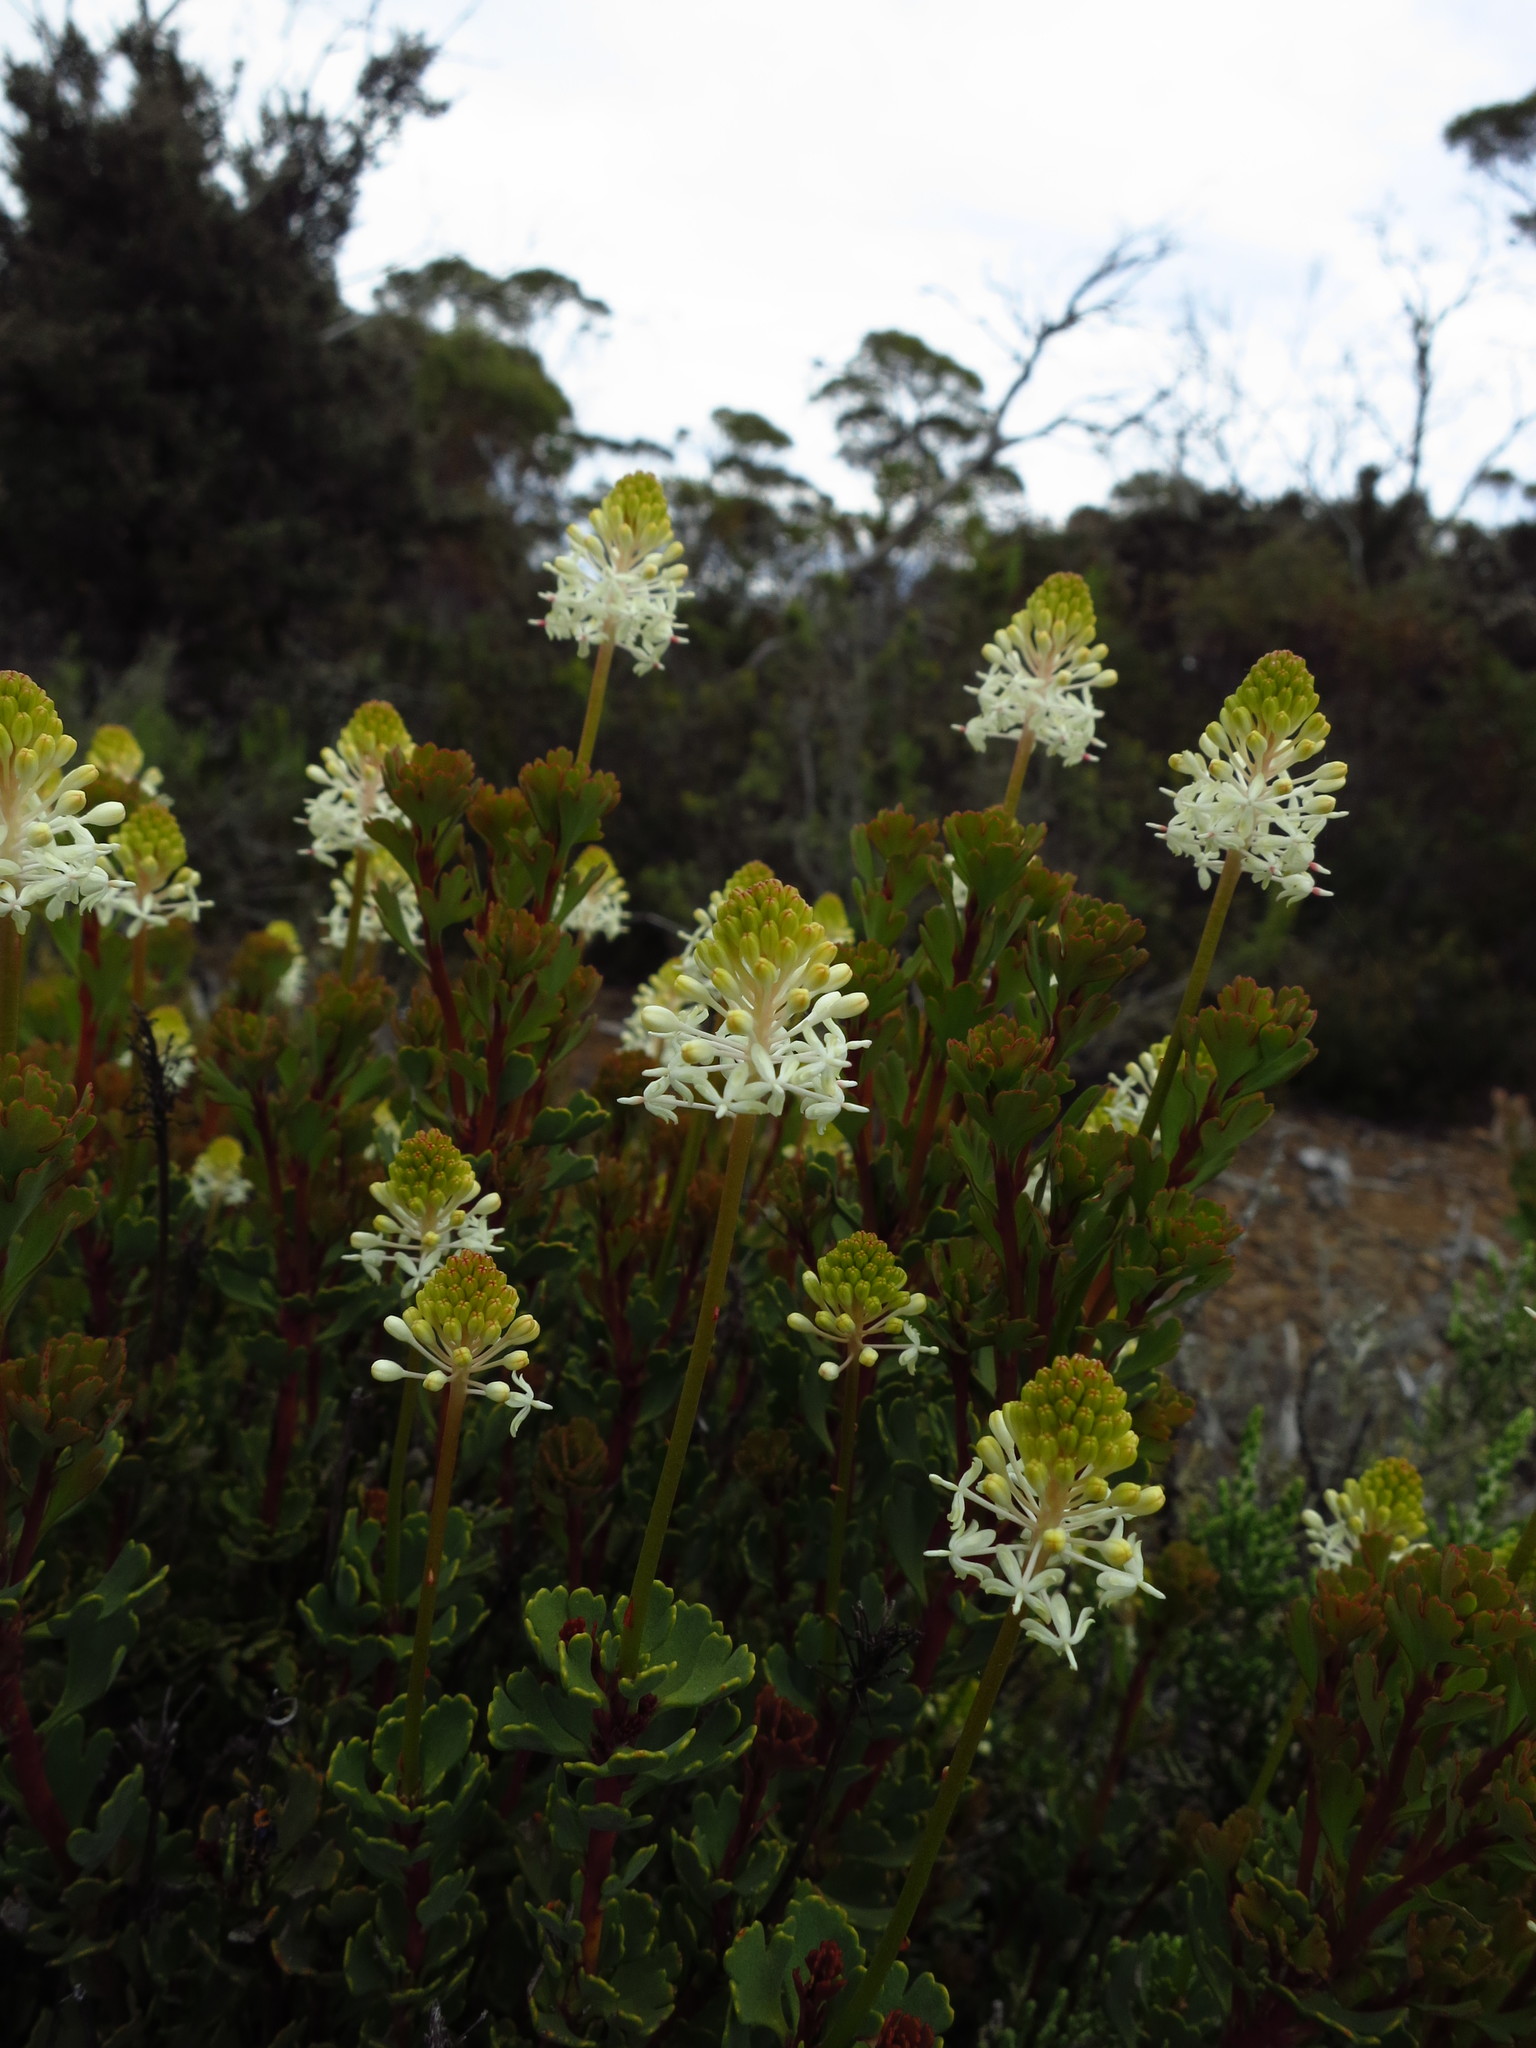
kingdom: Plantae
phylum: Tracheophyta
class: Magnoliopsida
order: Proteales
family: Proteaceae
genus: Bellendena
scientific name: Bellendena montana
